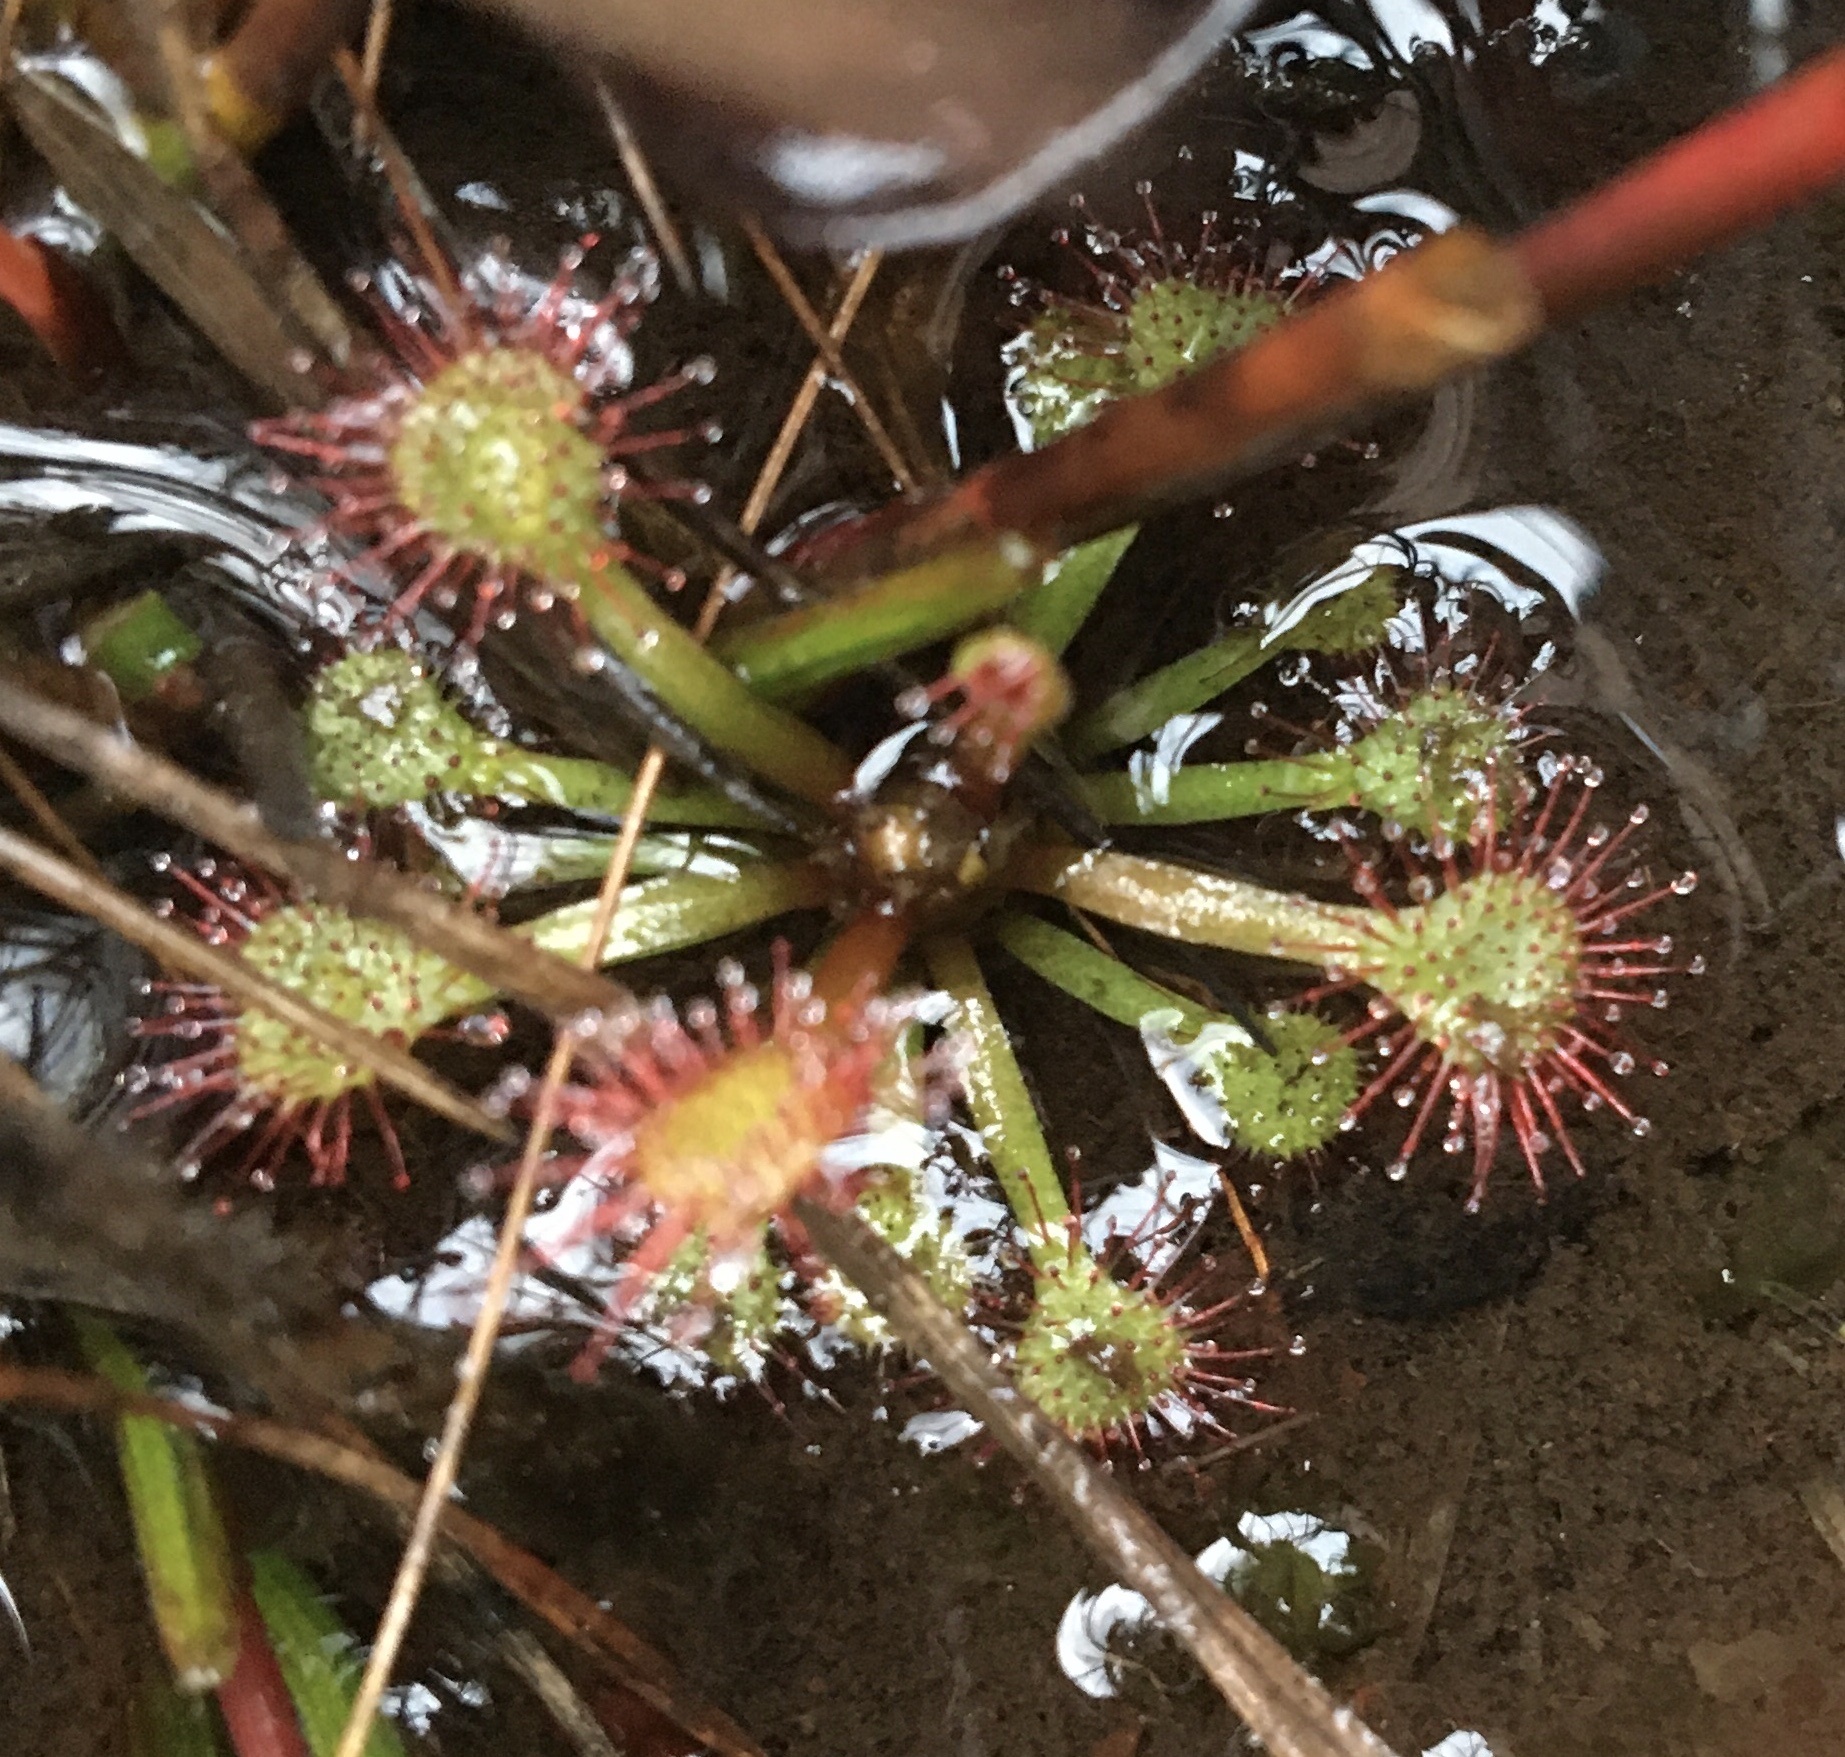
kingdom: Plantae
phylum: Tracheophyta
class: Magnoliopsida
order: Caryophyllales
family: Droseraceae
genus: Drosera
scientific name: Drosera capillaris
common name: Pink sundew
